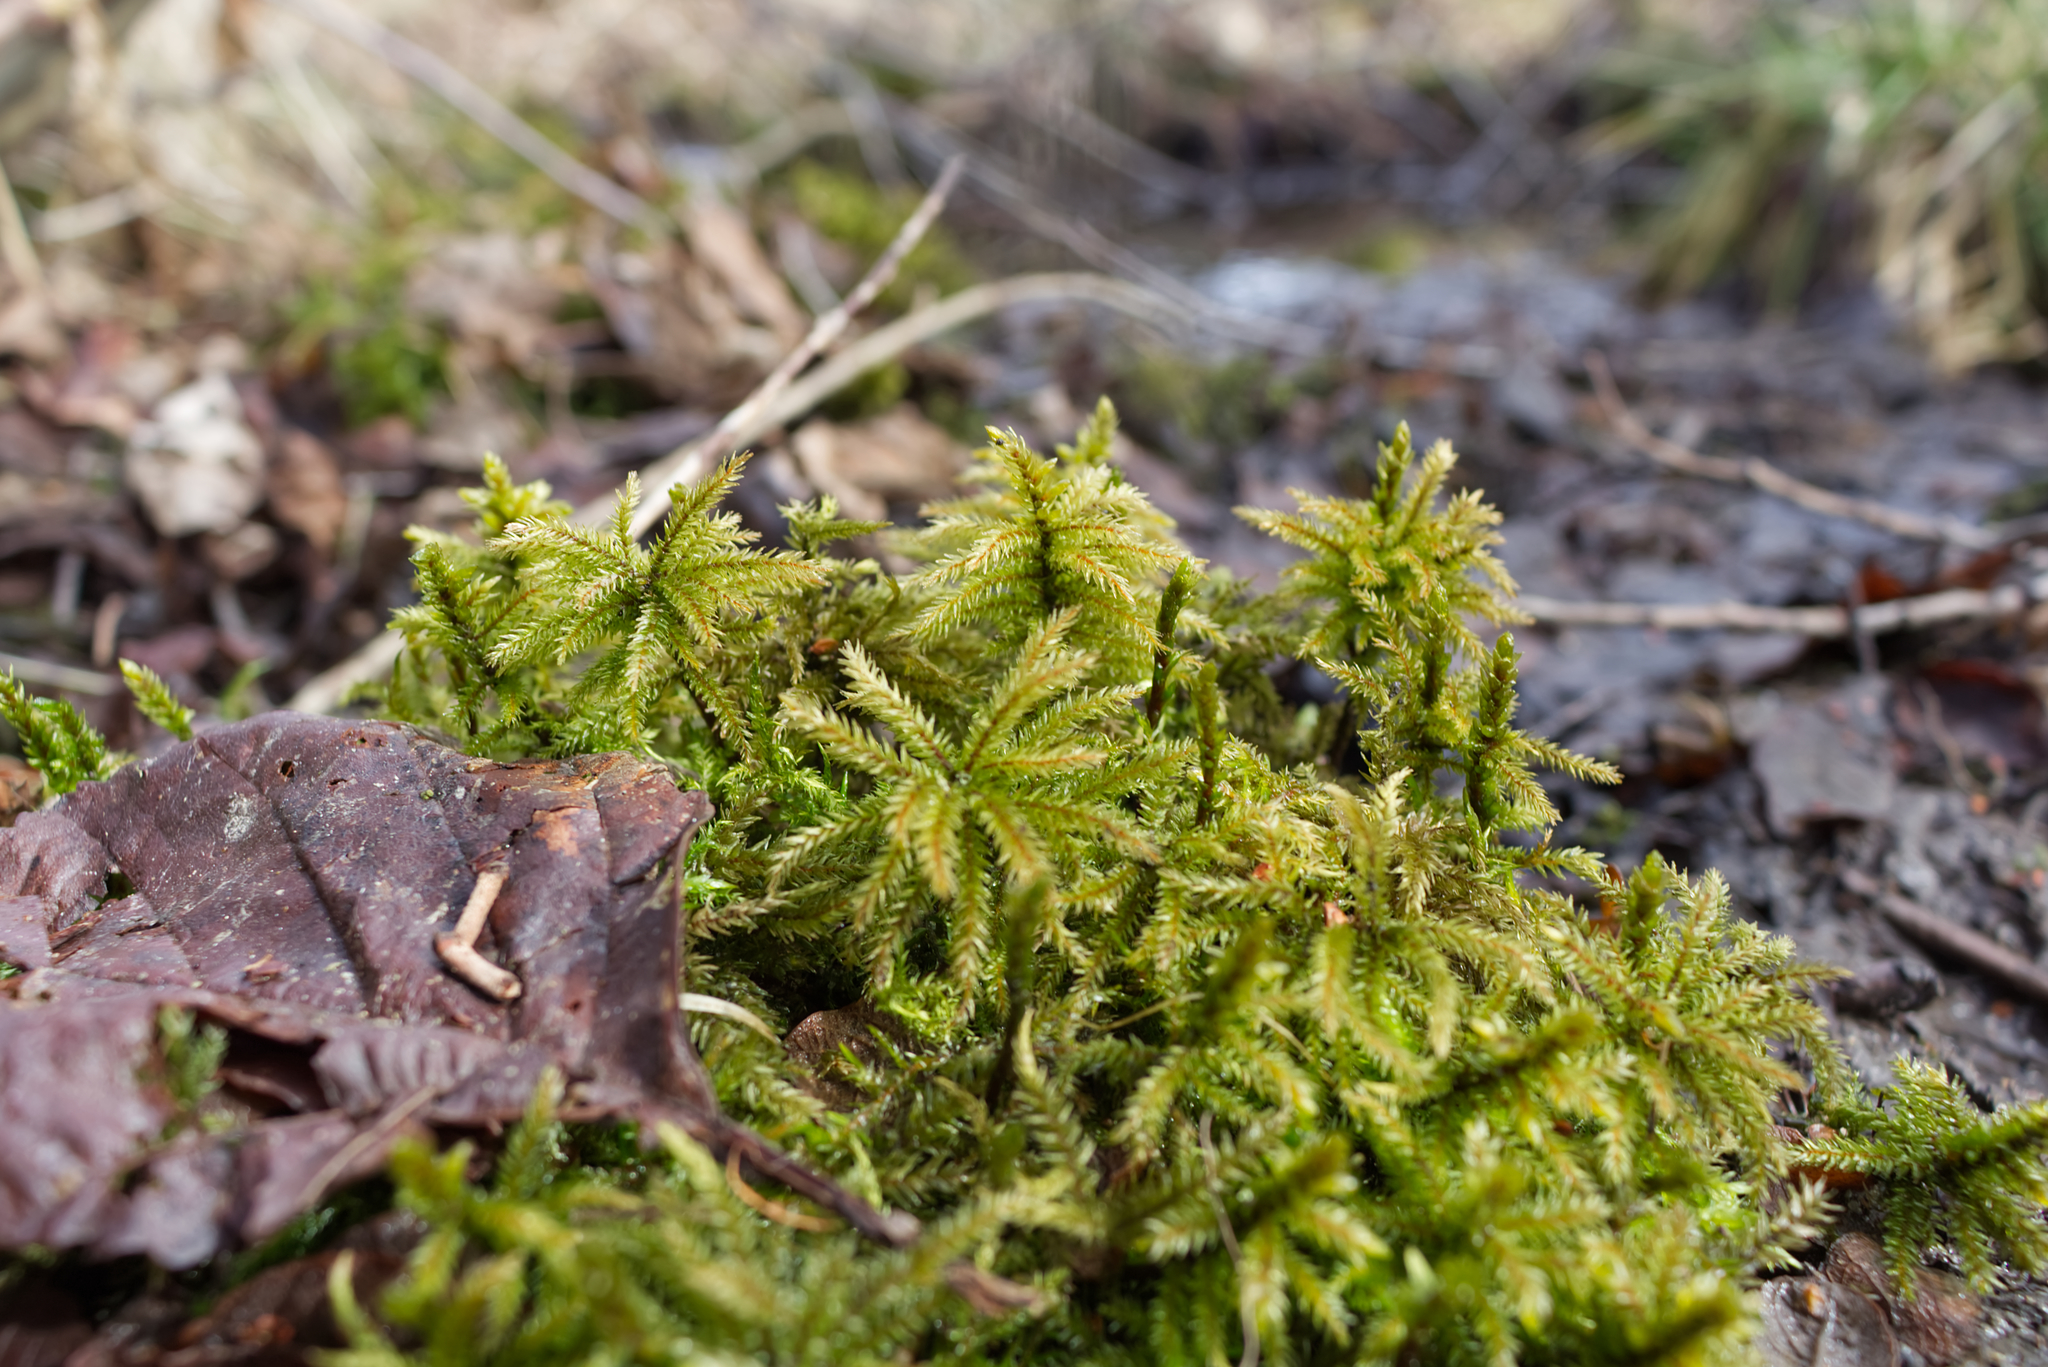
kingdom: Plantae
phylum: Bryophyta
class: Bryopsida
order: Hypnales
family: Climaciaceae
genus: Climacium
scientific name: Climacium dendroides
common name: Northern tree moss
